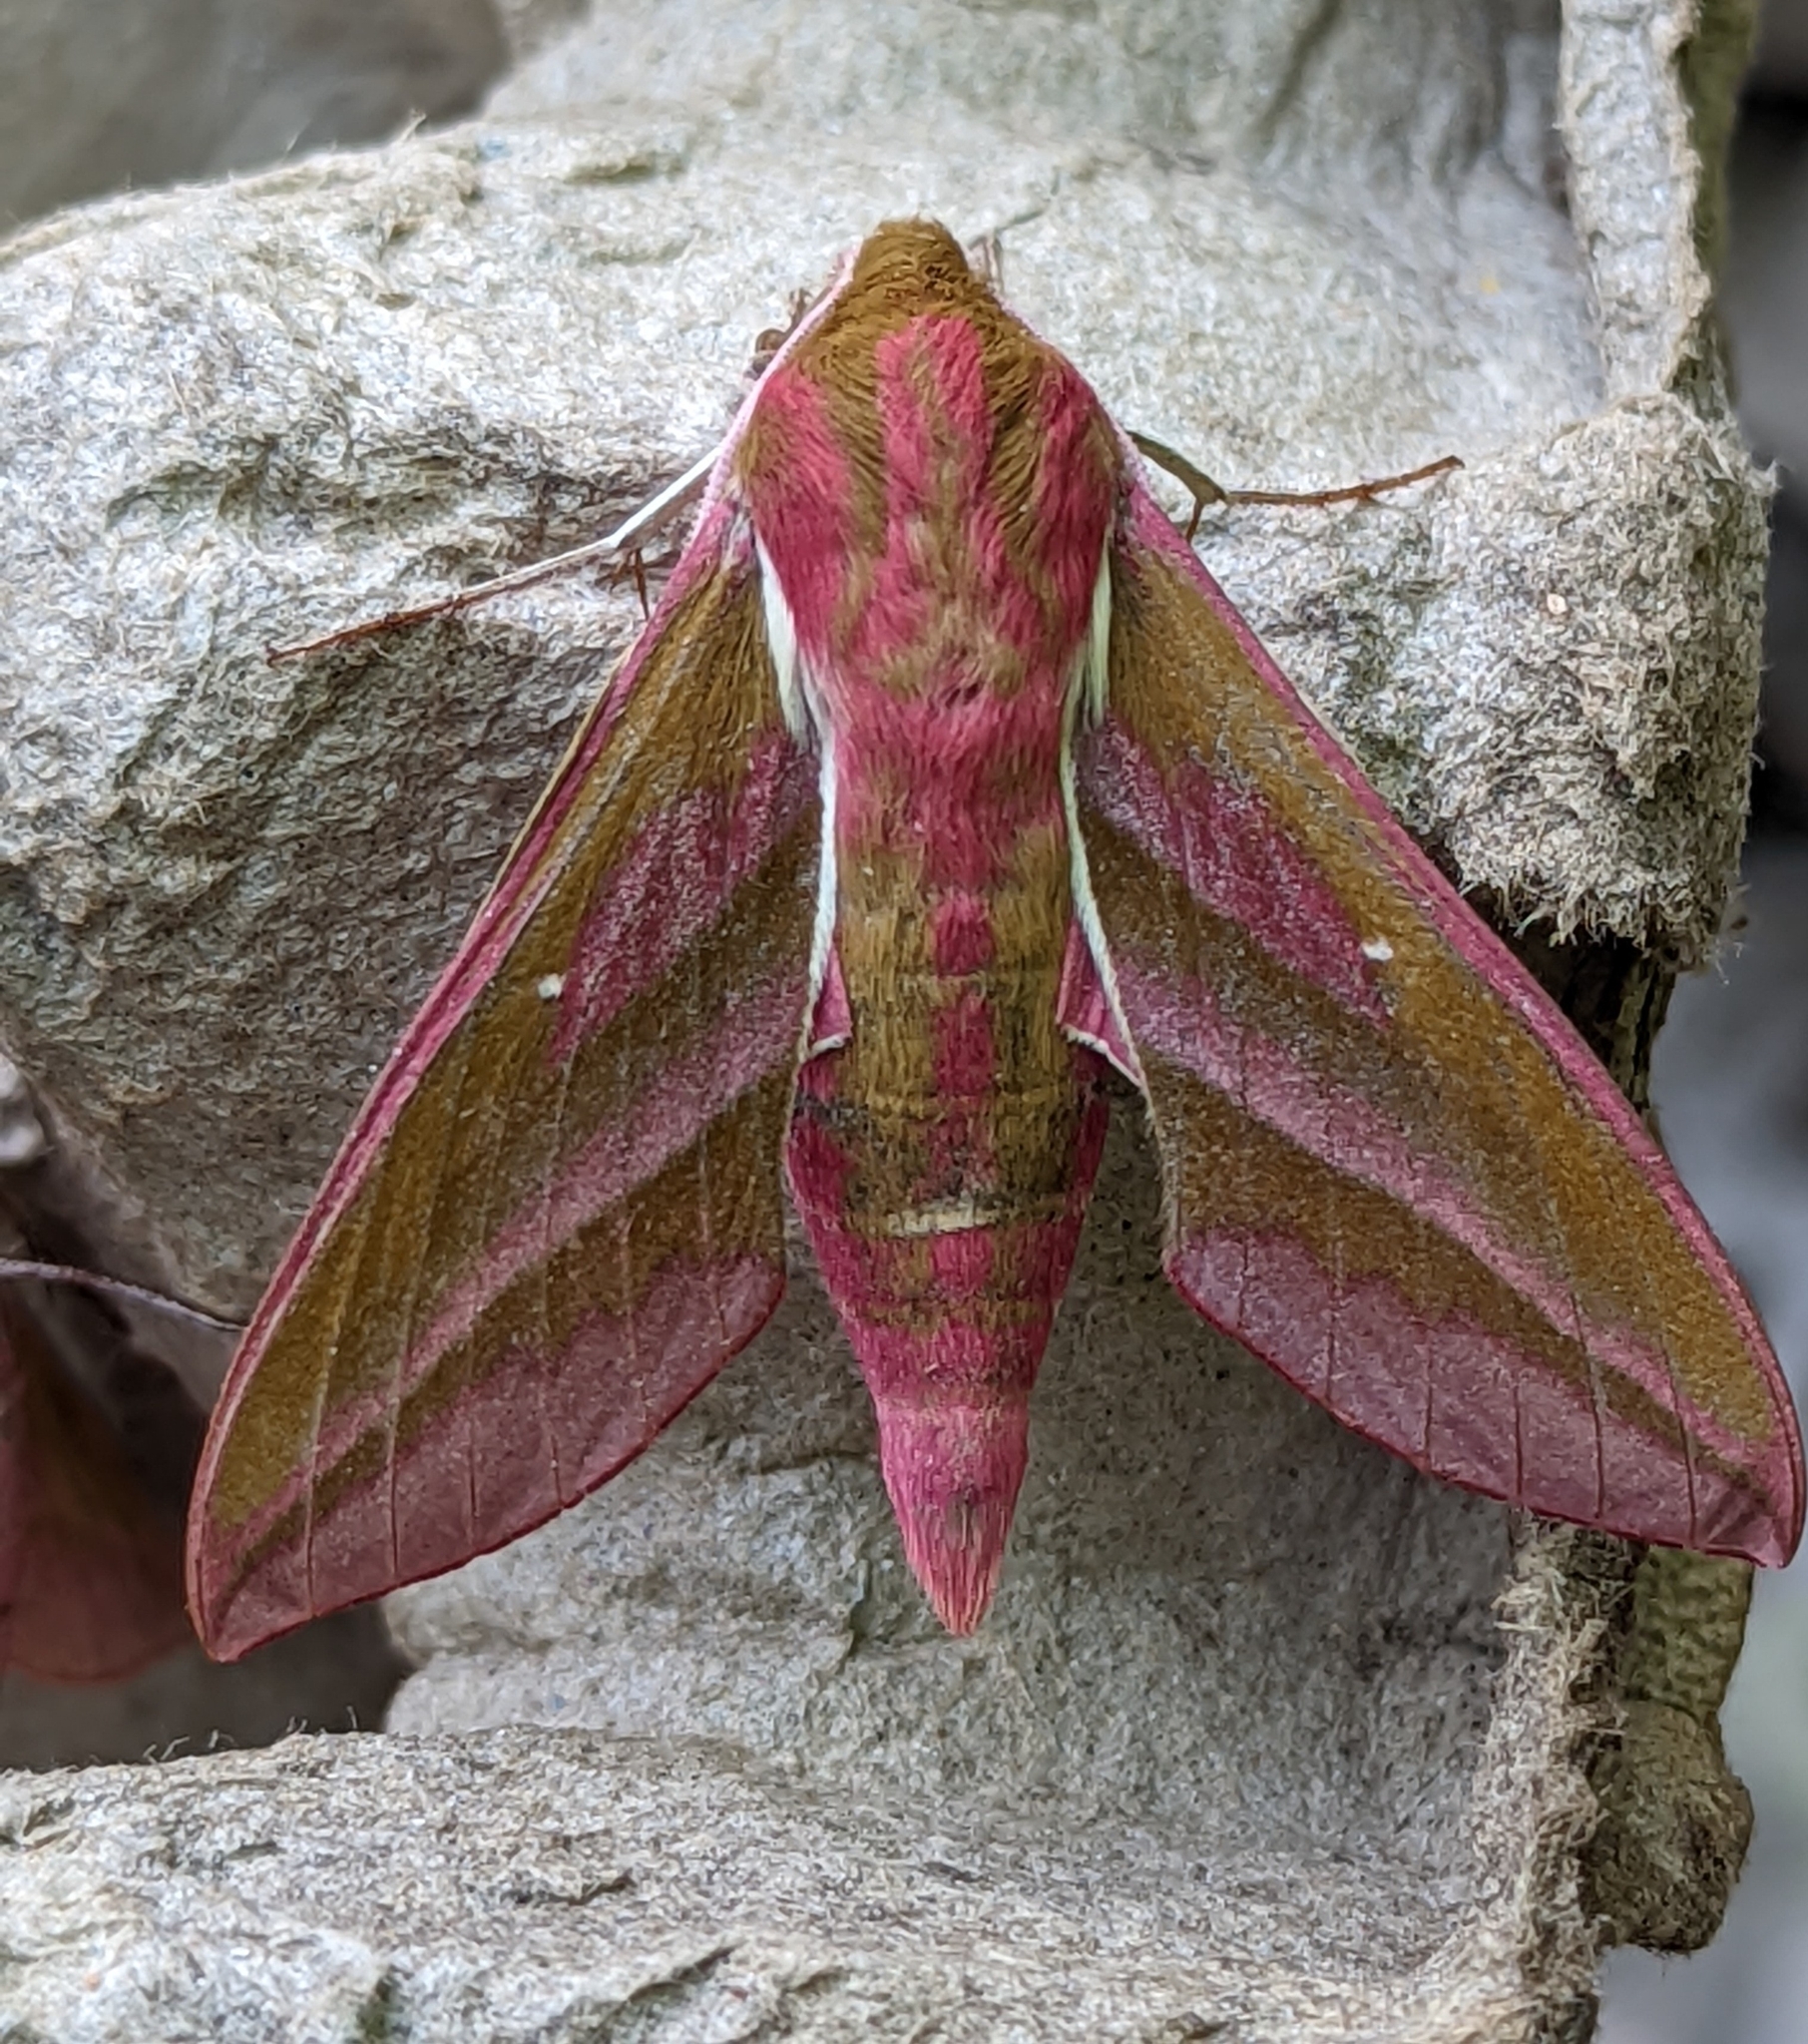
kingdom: Animalia
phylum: Arthropoda
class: Insecta
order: Lepidoptera
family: Sphingidae
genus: Deilephila
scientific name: Deilephila elpenor
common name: Elephant hawk-moth
